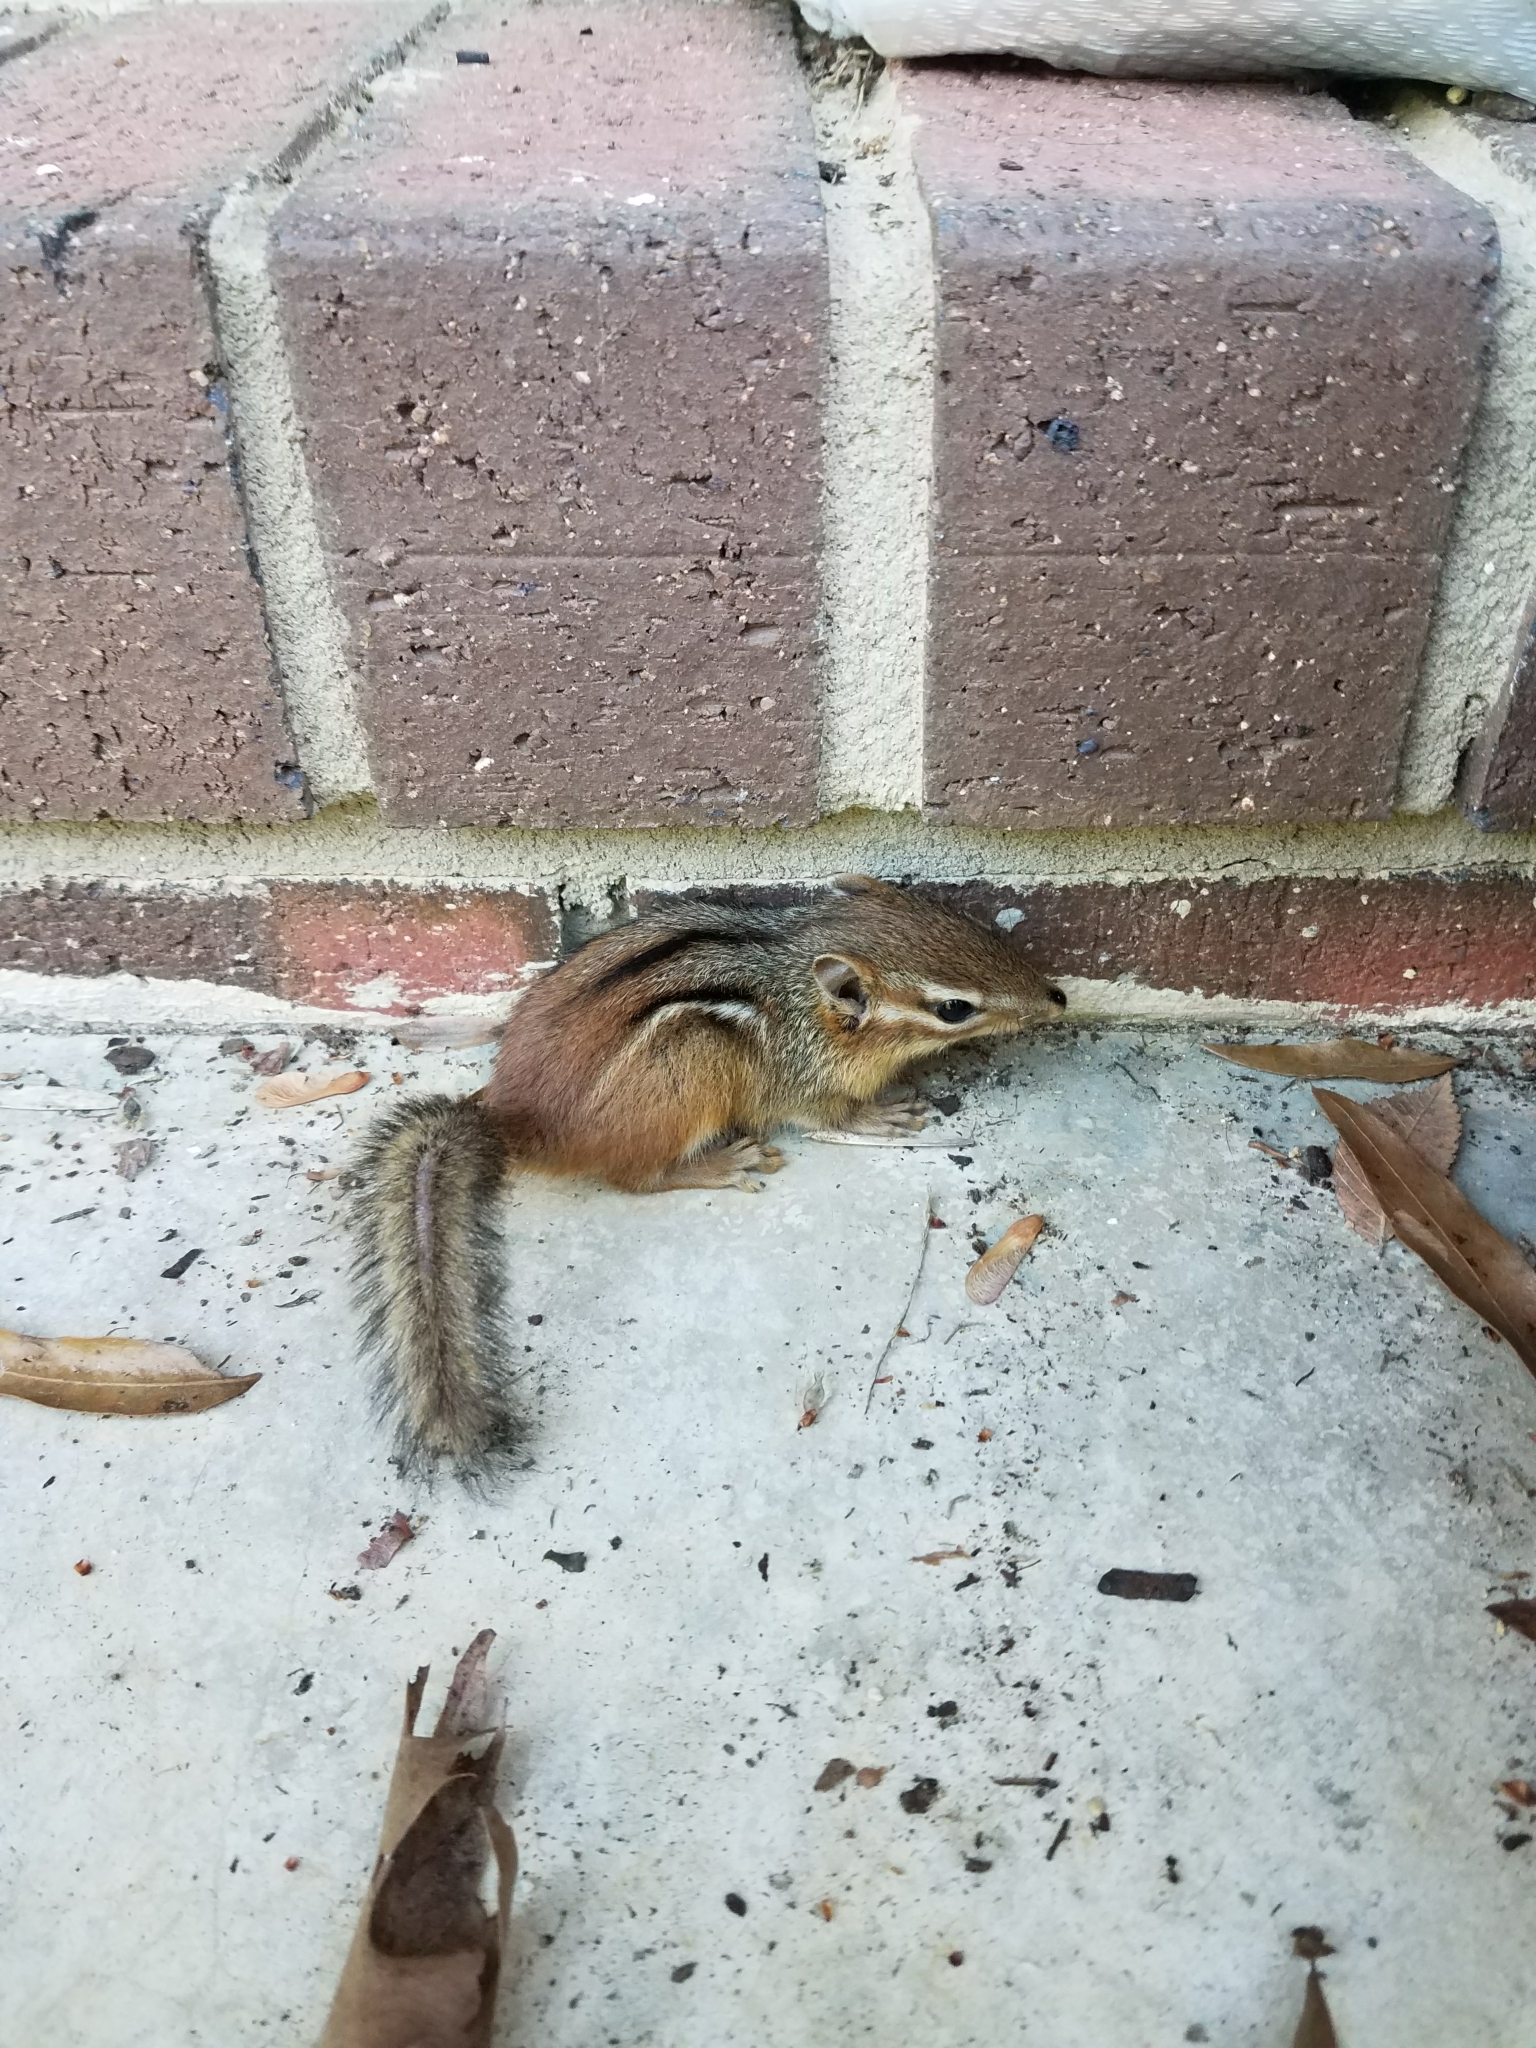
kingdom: Animalia
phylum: Chordata
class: Mammalia
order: Rodentia
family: Sciuridae
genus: Tamias
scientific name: Tamias striatus
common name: Eastern chipmunk
